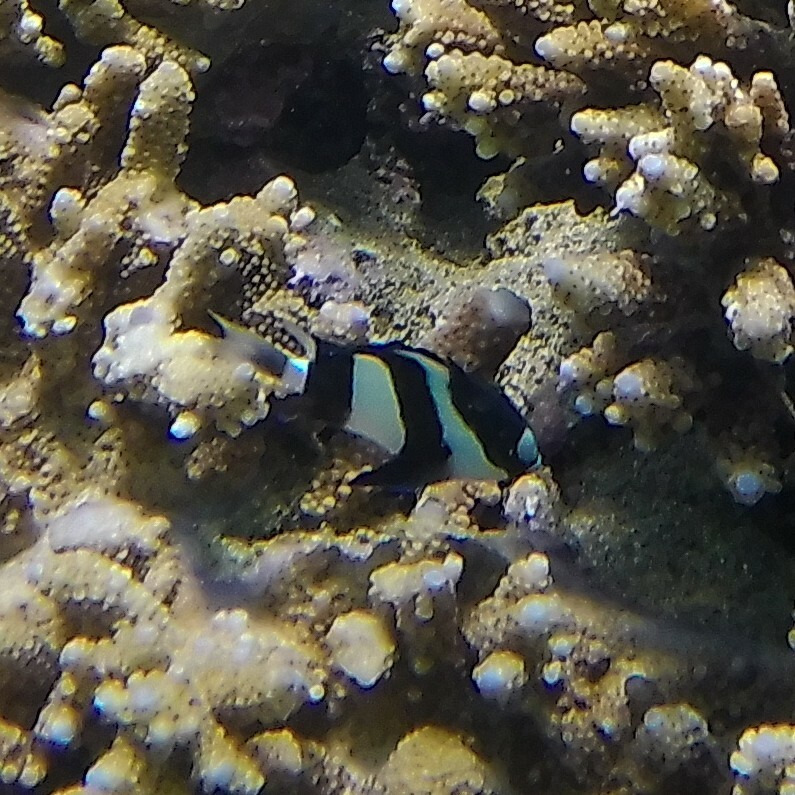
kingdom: Animalia
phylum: Chordata
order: Perciformes
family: Pomacentridae
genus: Dascyllus
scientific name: Dascyllus abudafur
